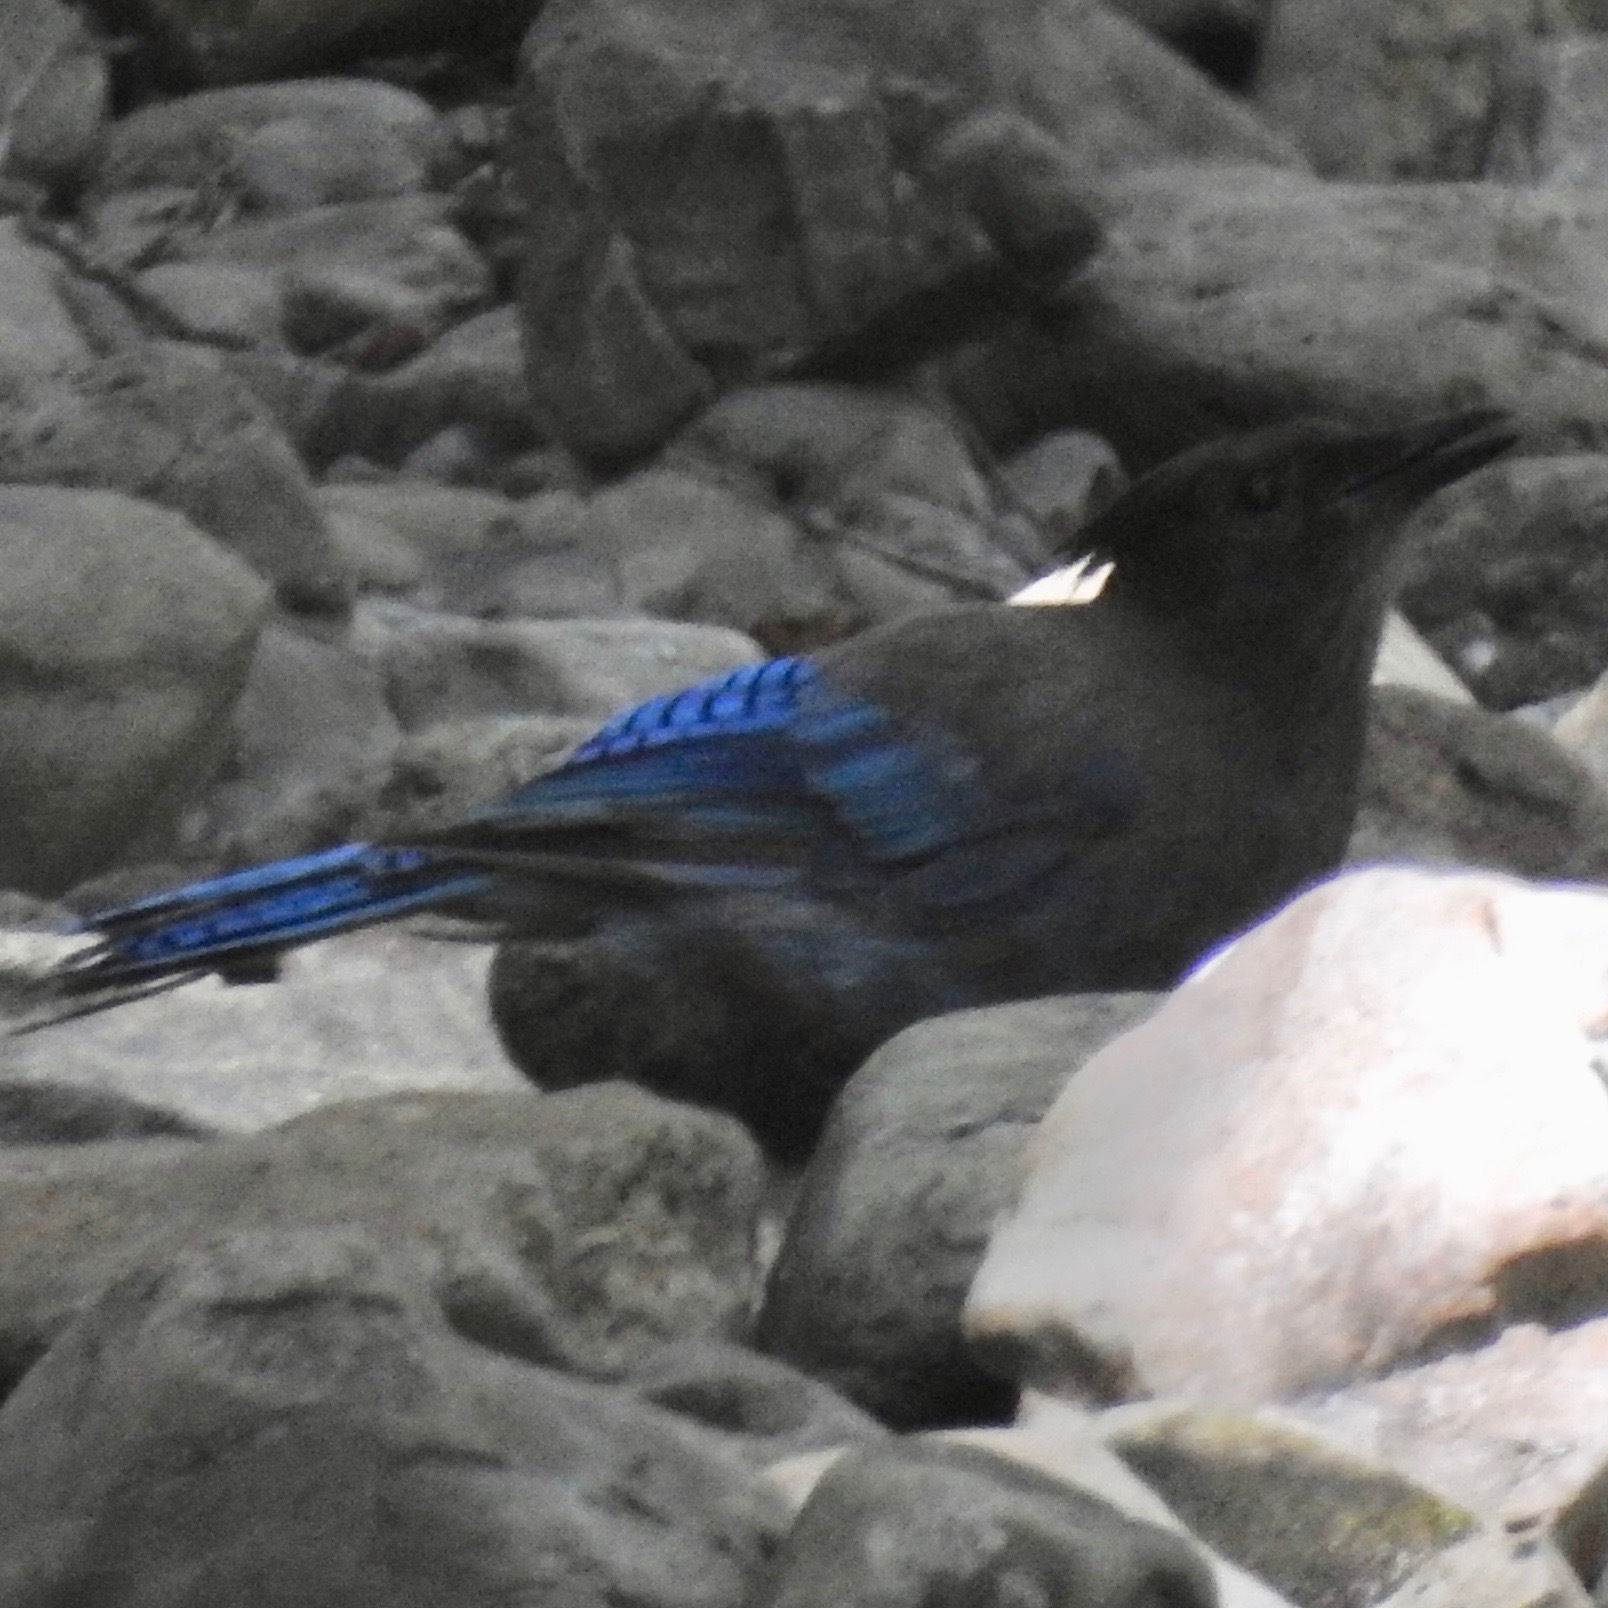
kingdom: Animalia
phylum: Chordata
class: Aves
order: Passeriformes
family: Corvidae
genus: Cyanocitta
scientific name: Cyanocitta stelleri
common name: Steller's jay
